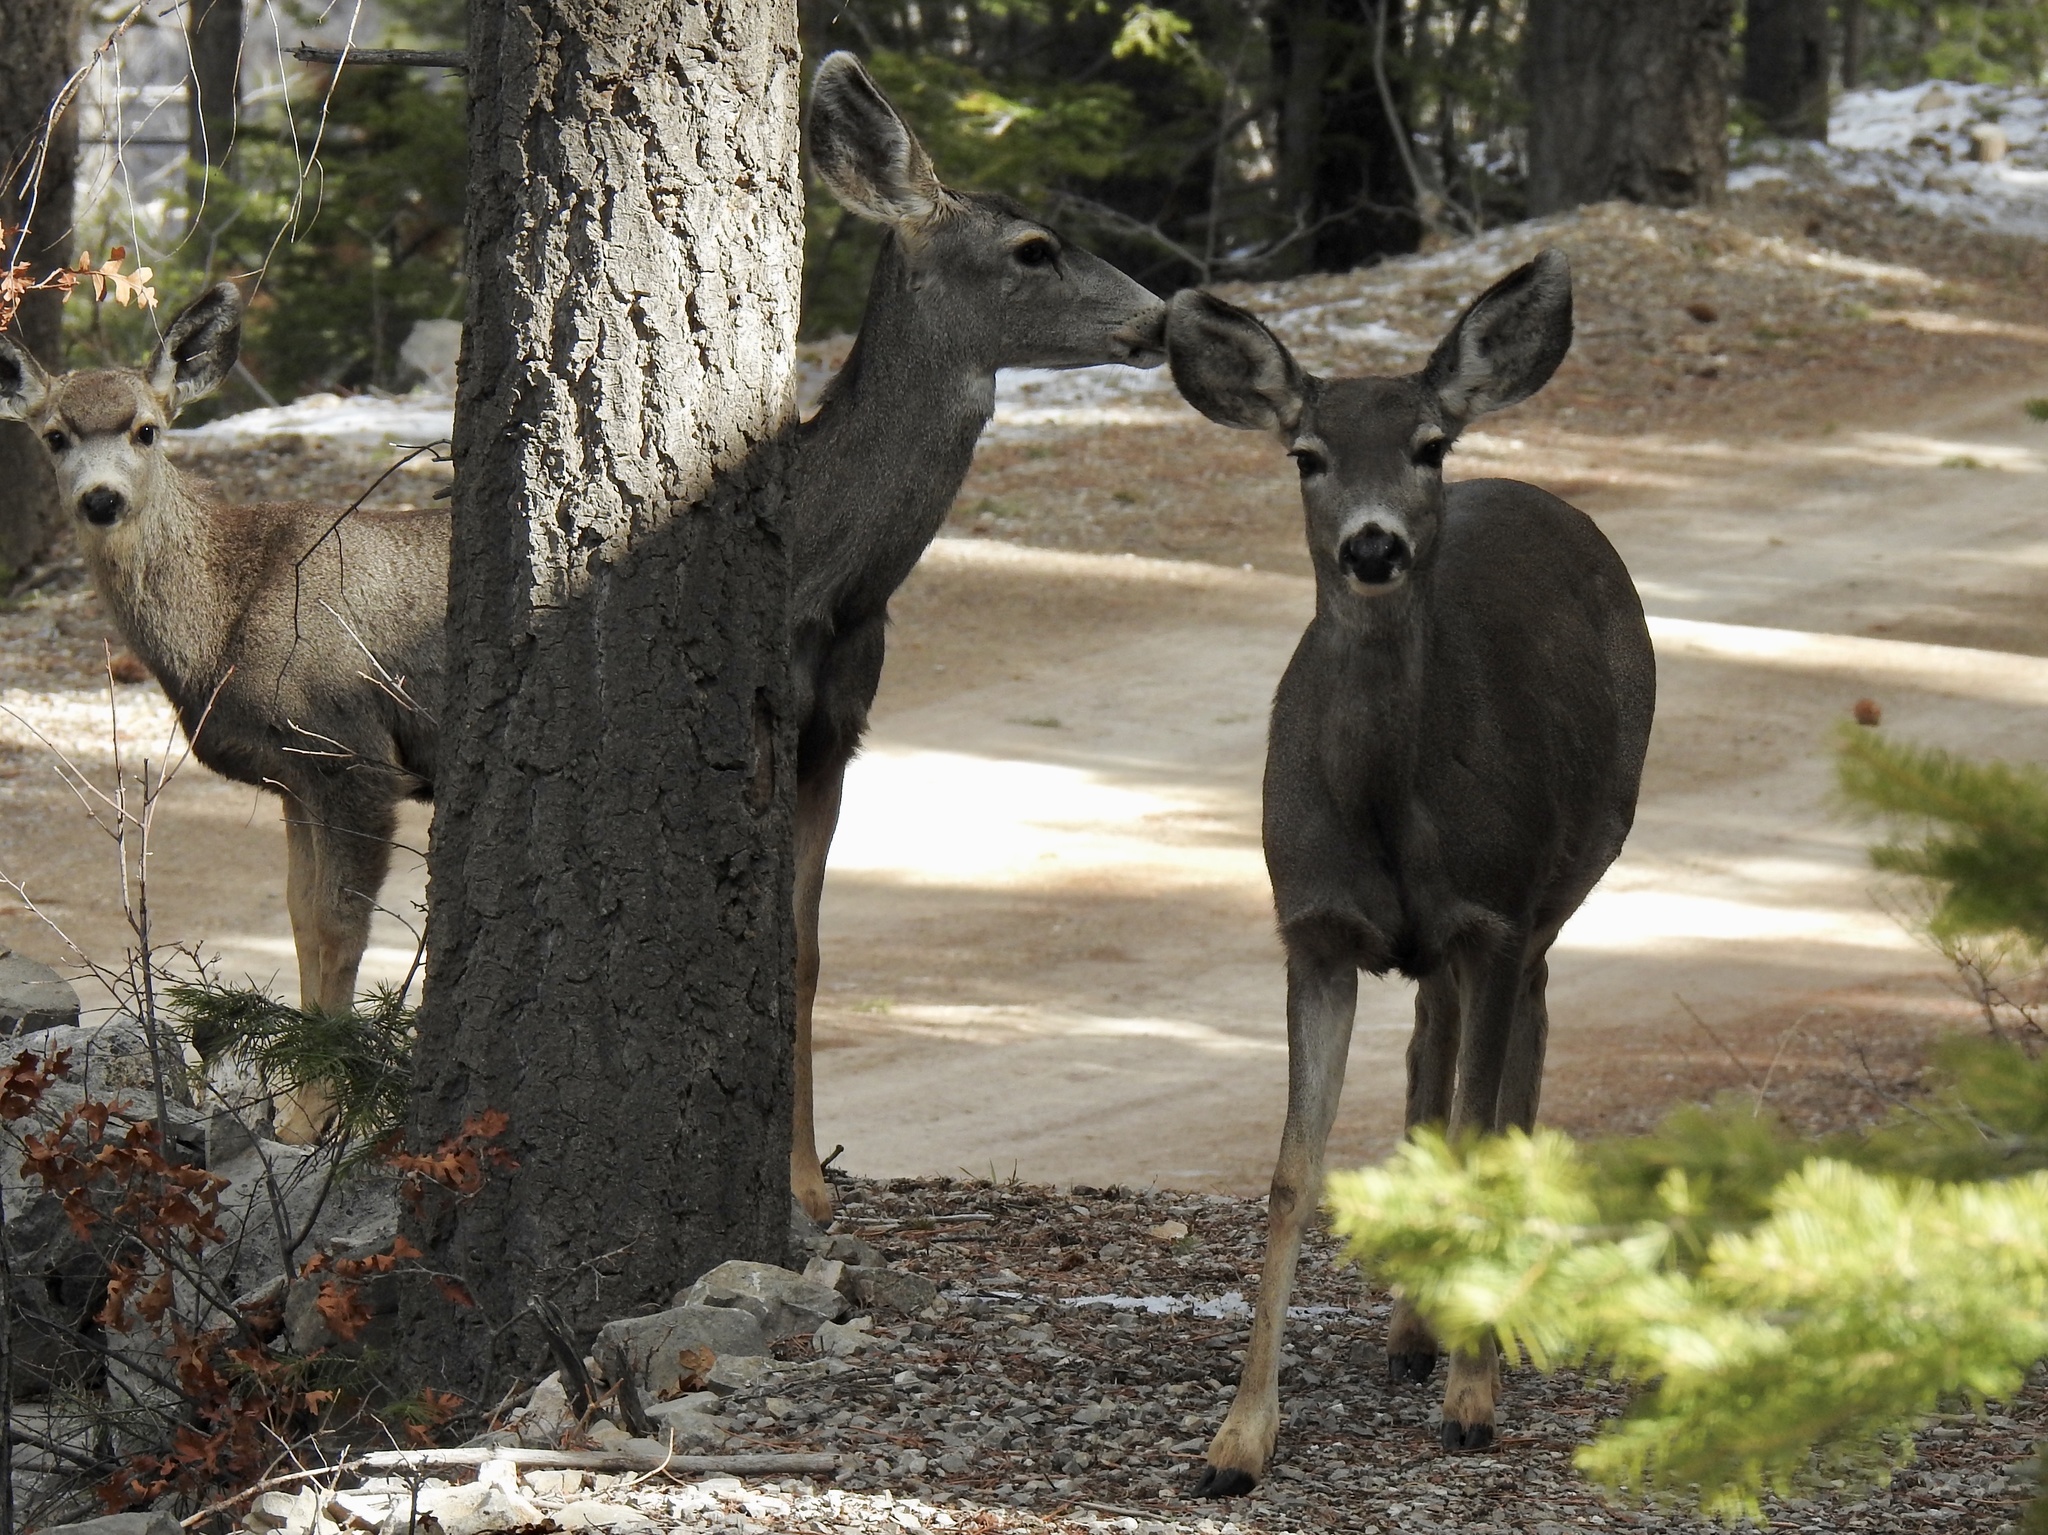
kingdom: Animalia
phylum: Chordata
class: Mammalia
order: Artiodactyla
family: Cervidae
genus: Odocoileus
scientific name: Odocoileus hemionus
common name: Mule deer
